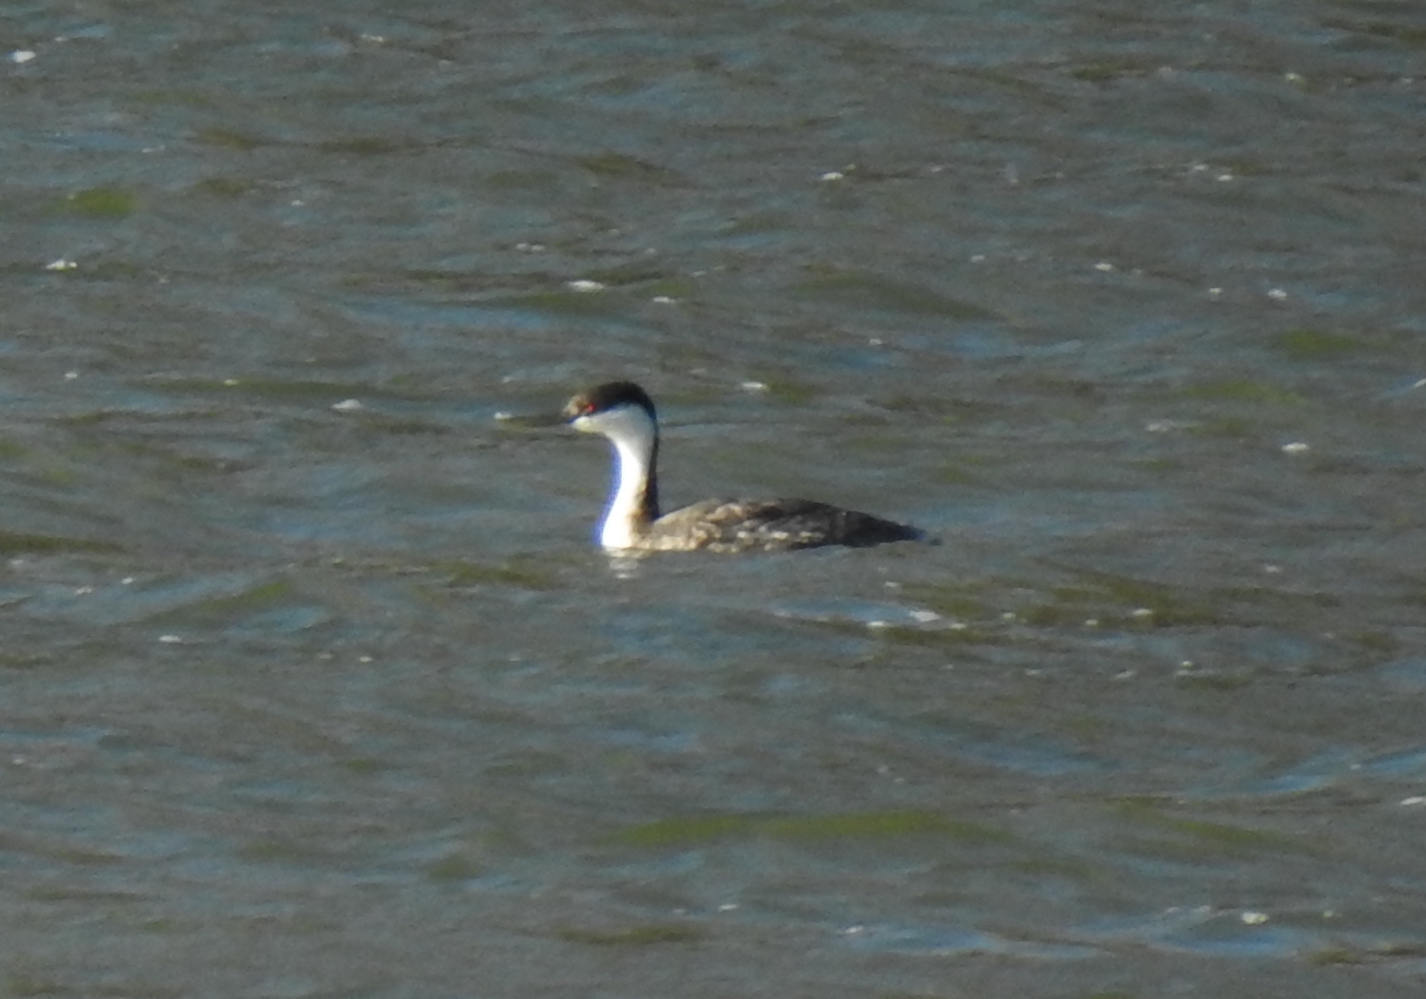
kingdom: Animalia
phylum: Chordata
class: Aves
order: Podicipediformes
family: Podicipedidae
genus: Aechmophorus
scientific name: Aechmophorus occidentalis
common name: Western grebe
